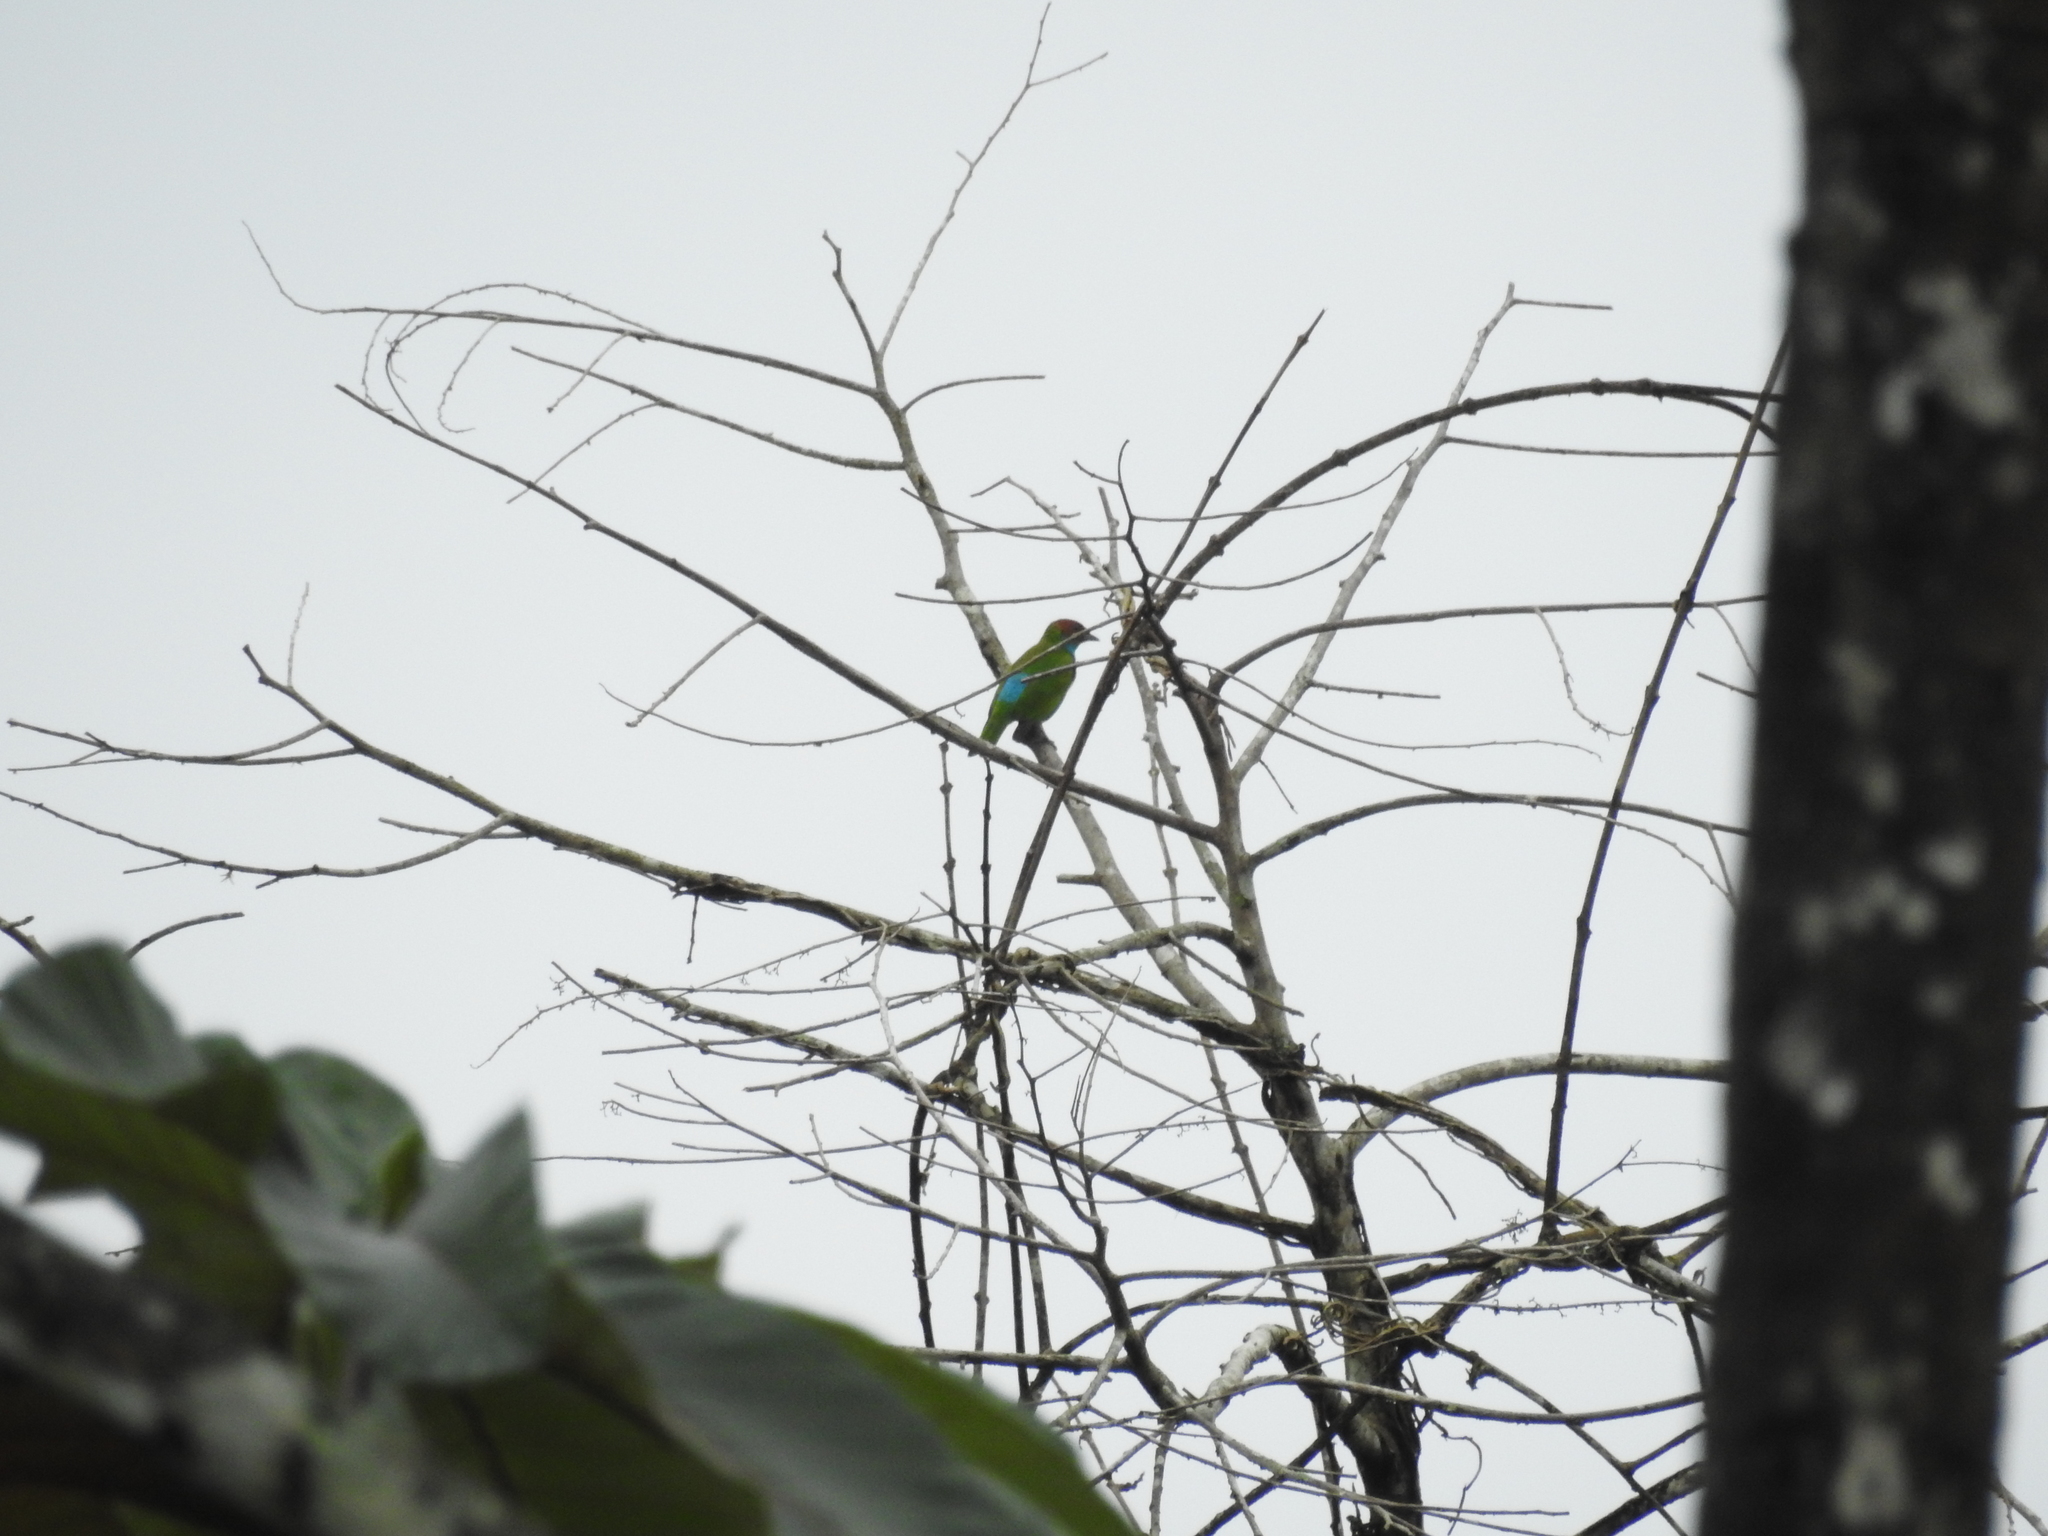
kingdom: Animalia
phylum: Chordata
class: Aves
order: Passeriformes
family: Thraupidae
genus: Tangara
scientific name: Tangara gyrola
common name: Bay-headed tanager
